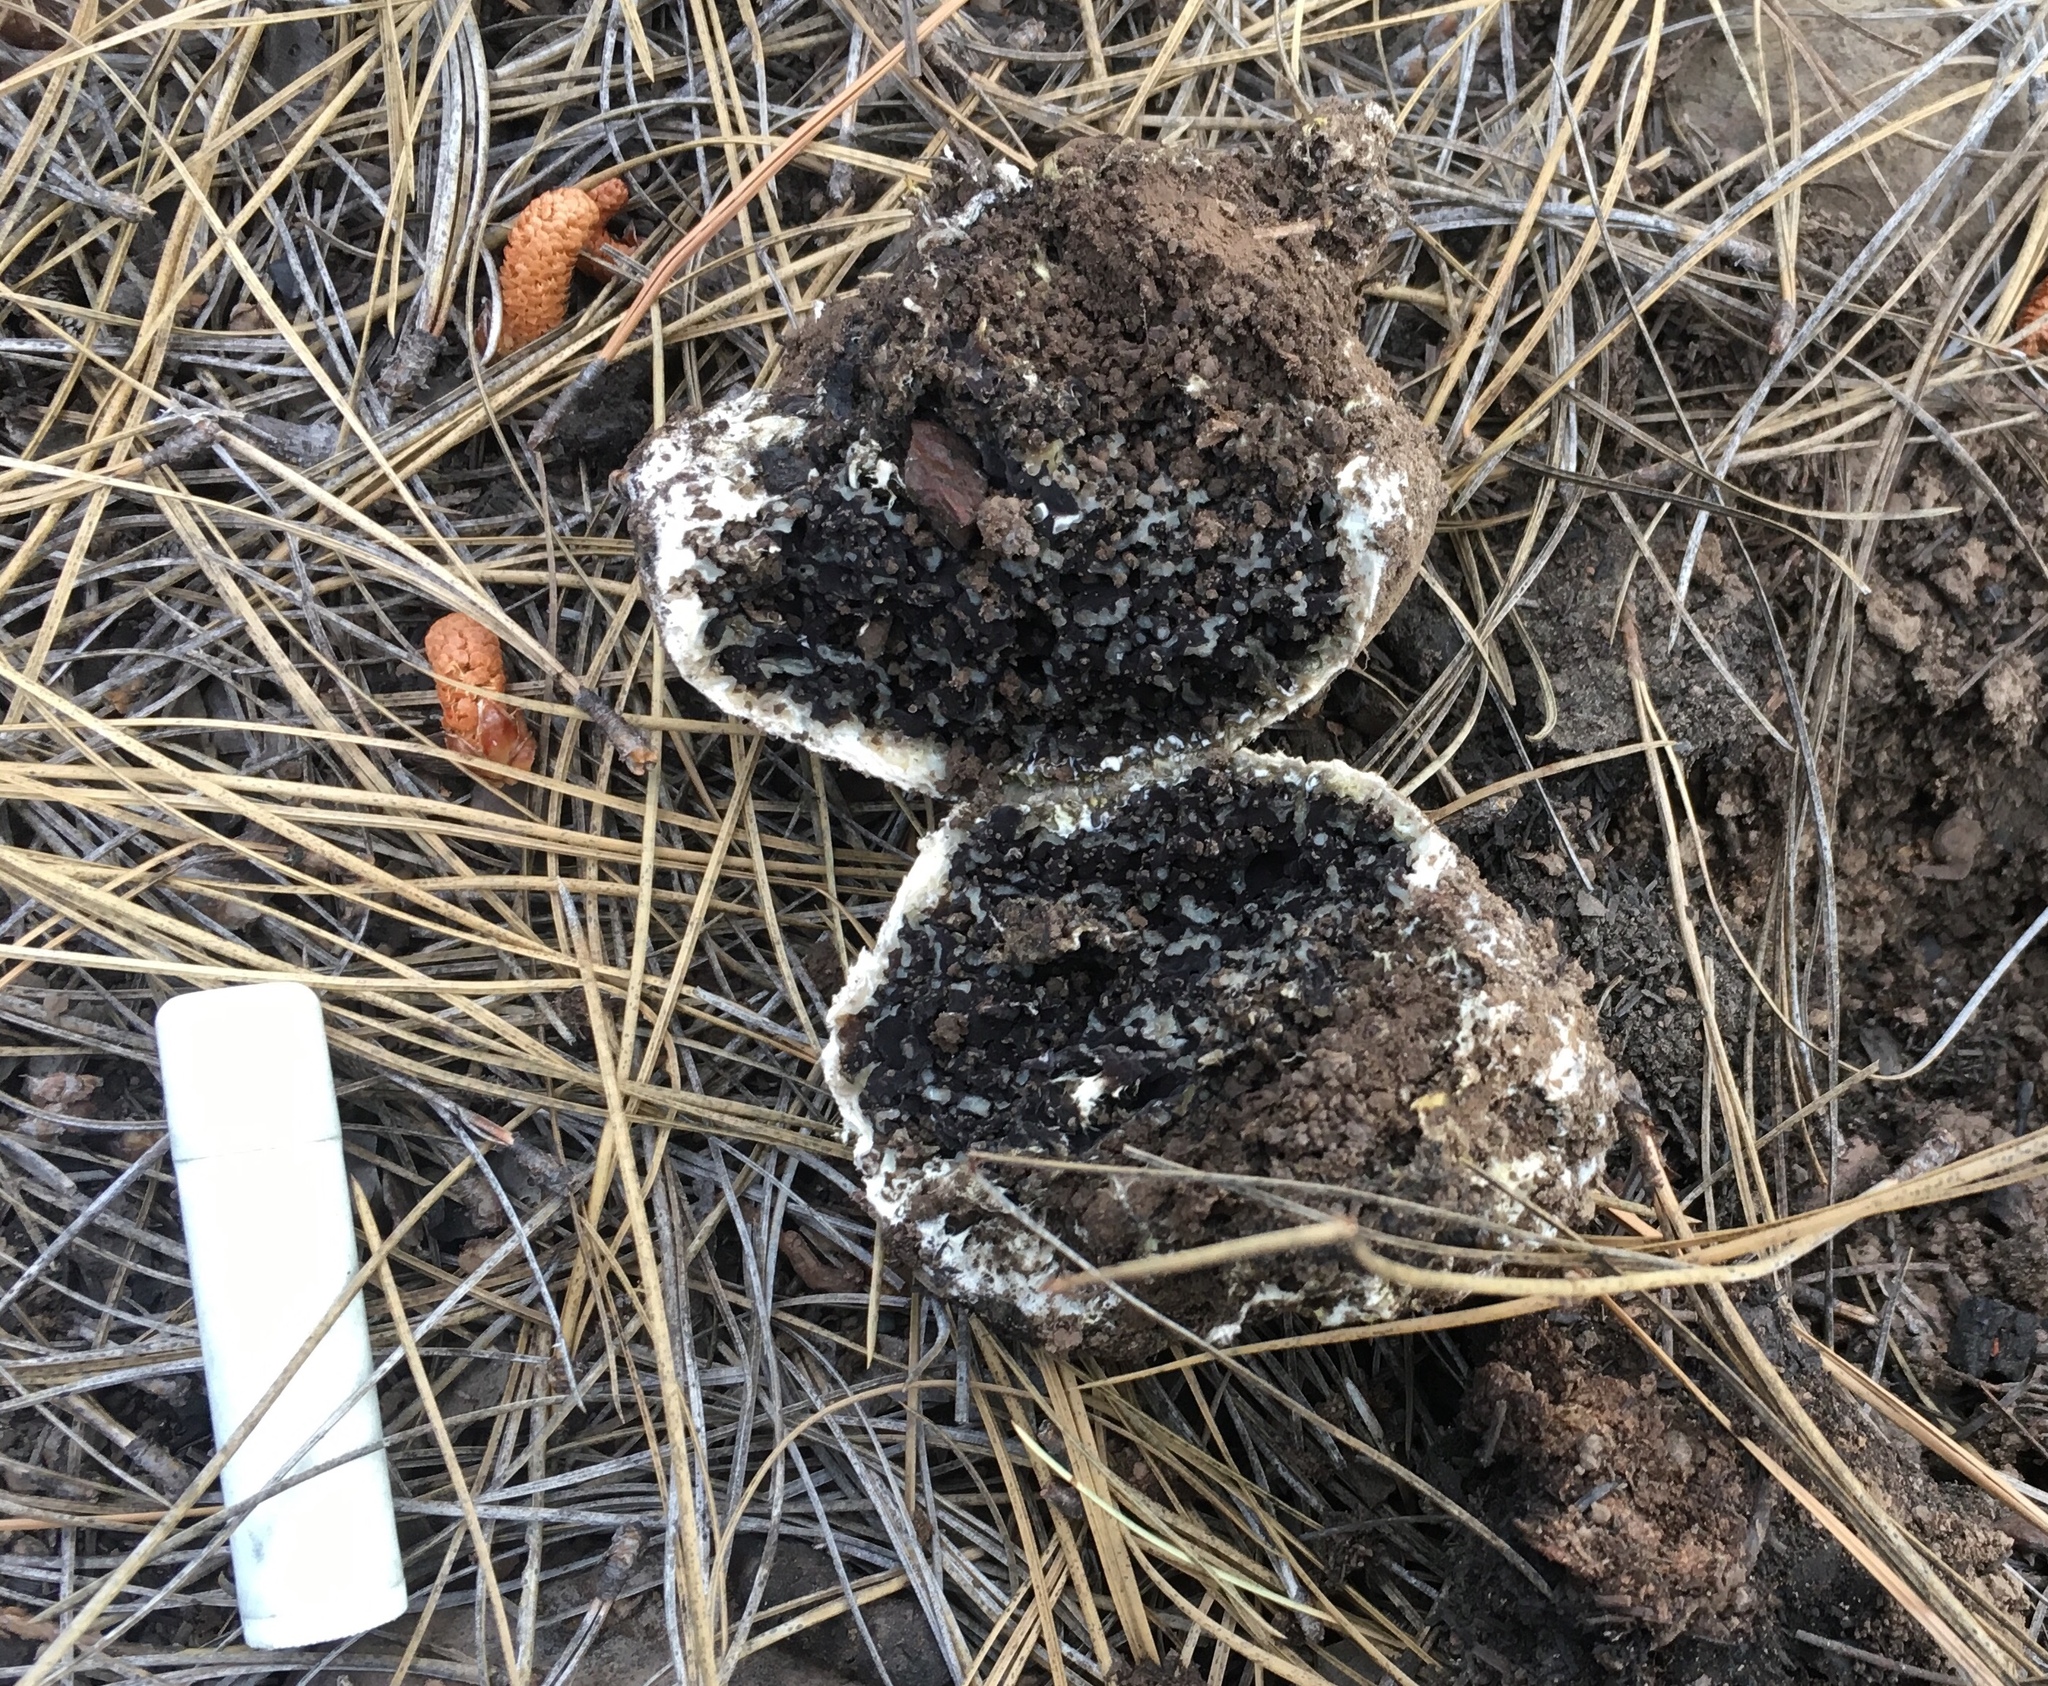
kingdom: Fungi
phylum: Basidiomycota
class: Agaricomycetes
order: Boletales
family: Coniophoraceae
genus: Sedecula
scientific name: Sedecula pulvinata
